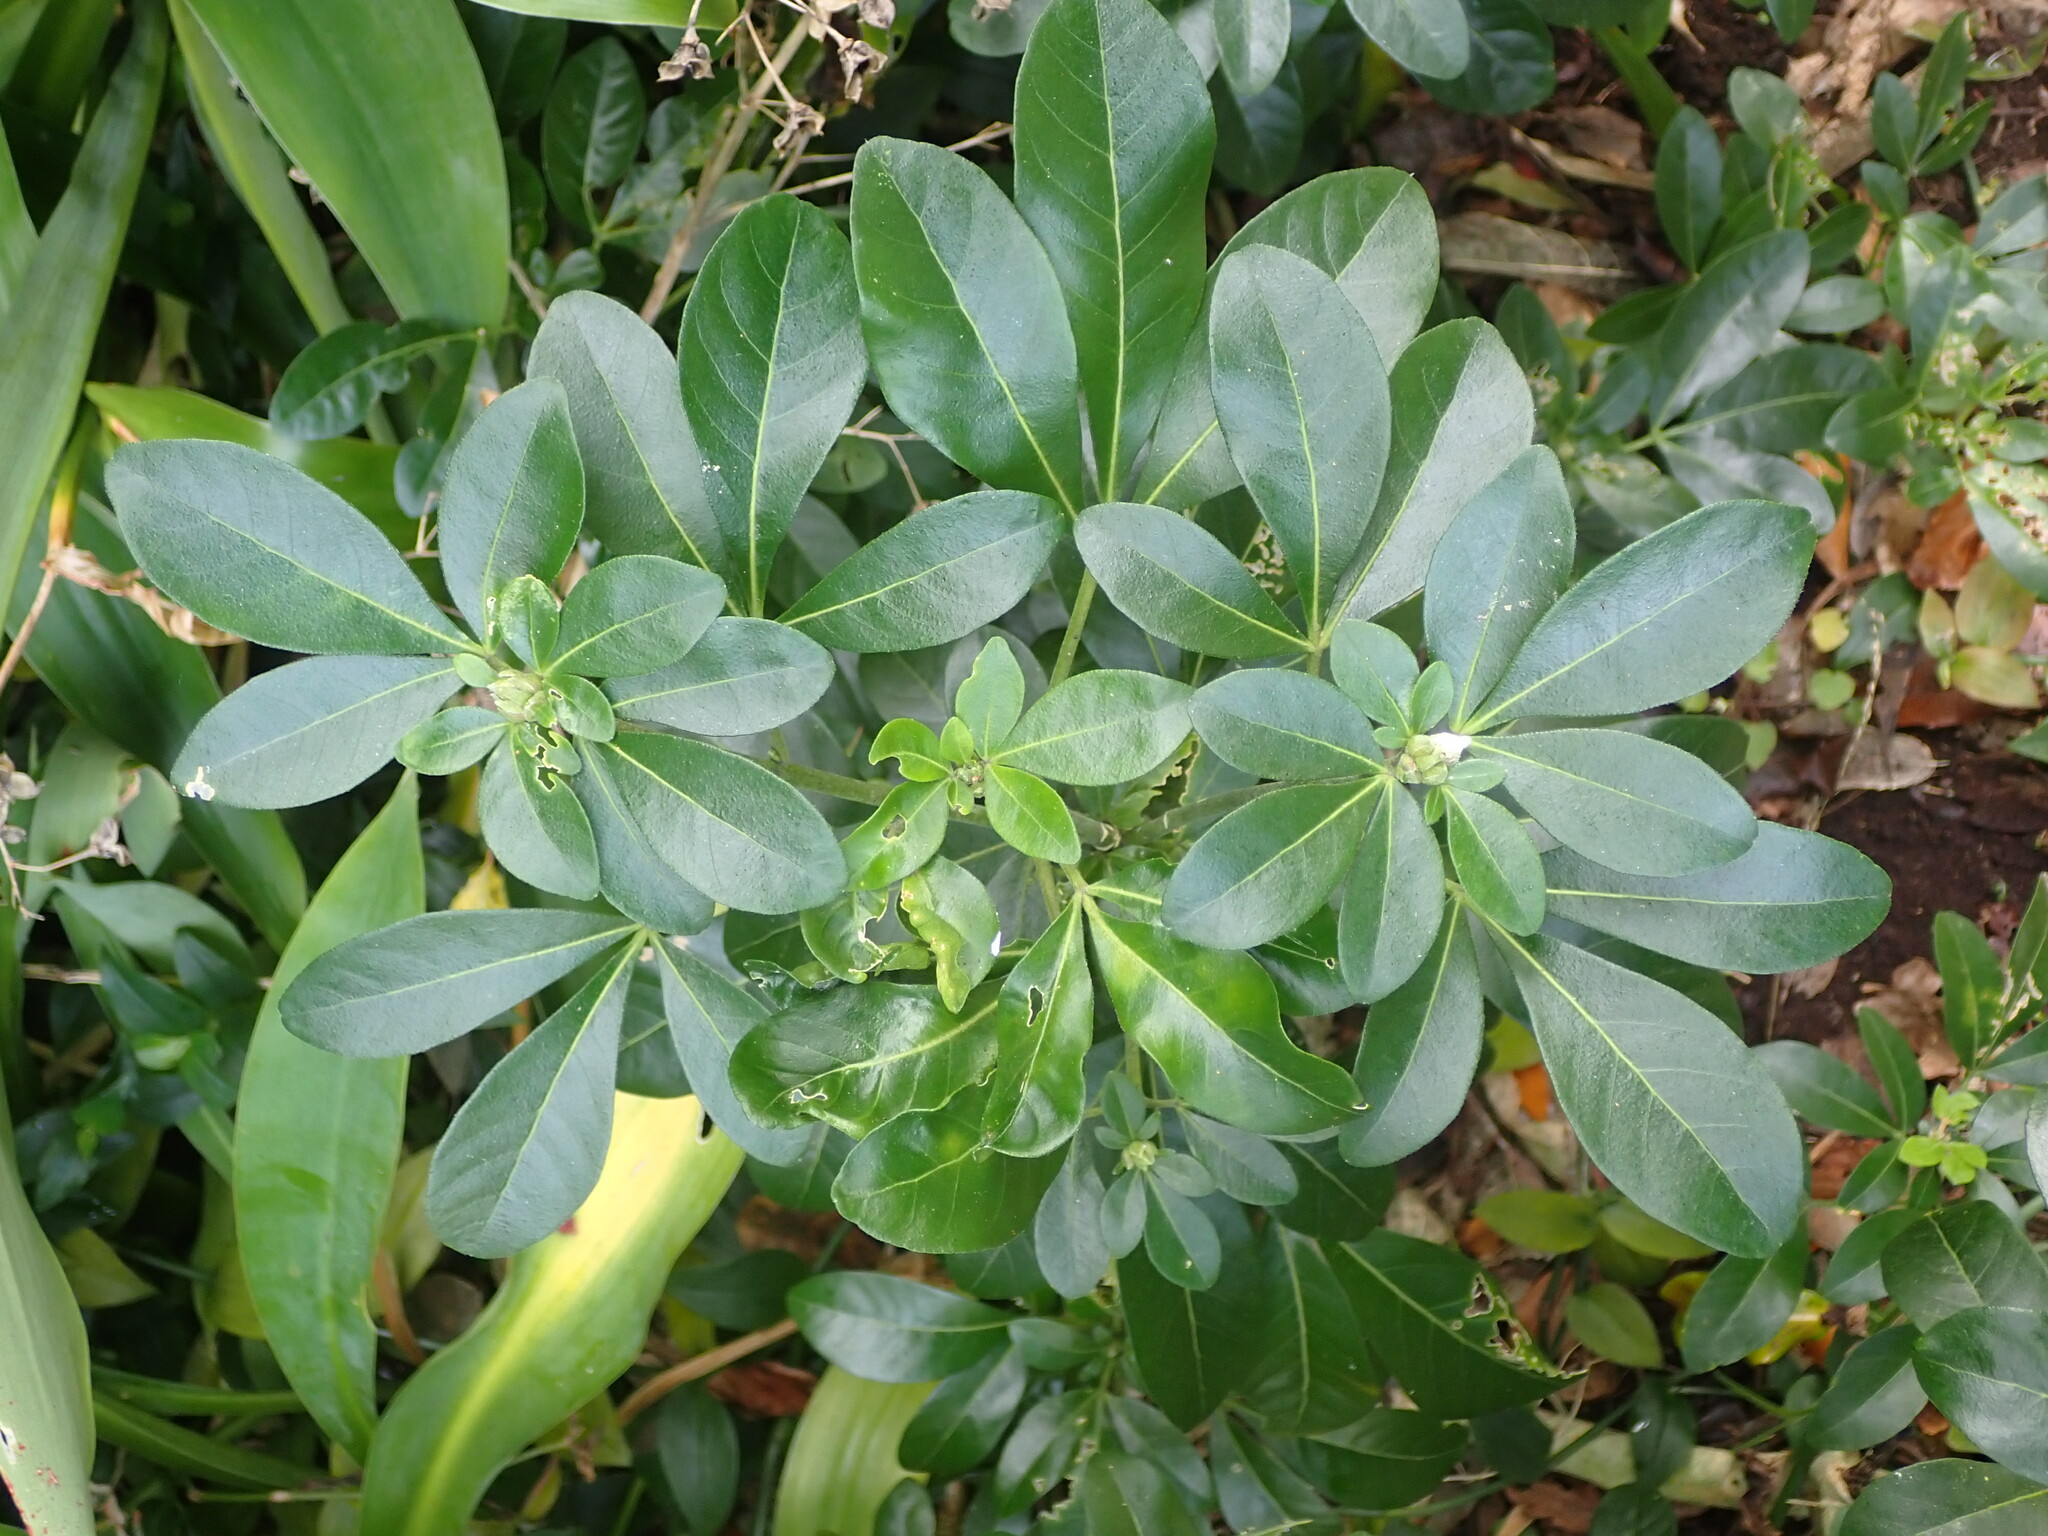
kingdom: Plantae
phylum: Tracheophyta
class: Magnoliopsida
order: Sapindales
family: Rutaceae
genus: Choisya
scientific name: Choisya ternata
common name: Mexican orange
